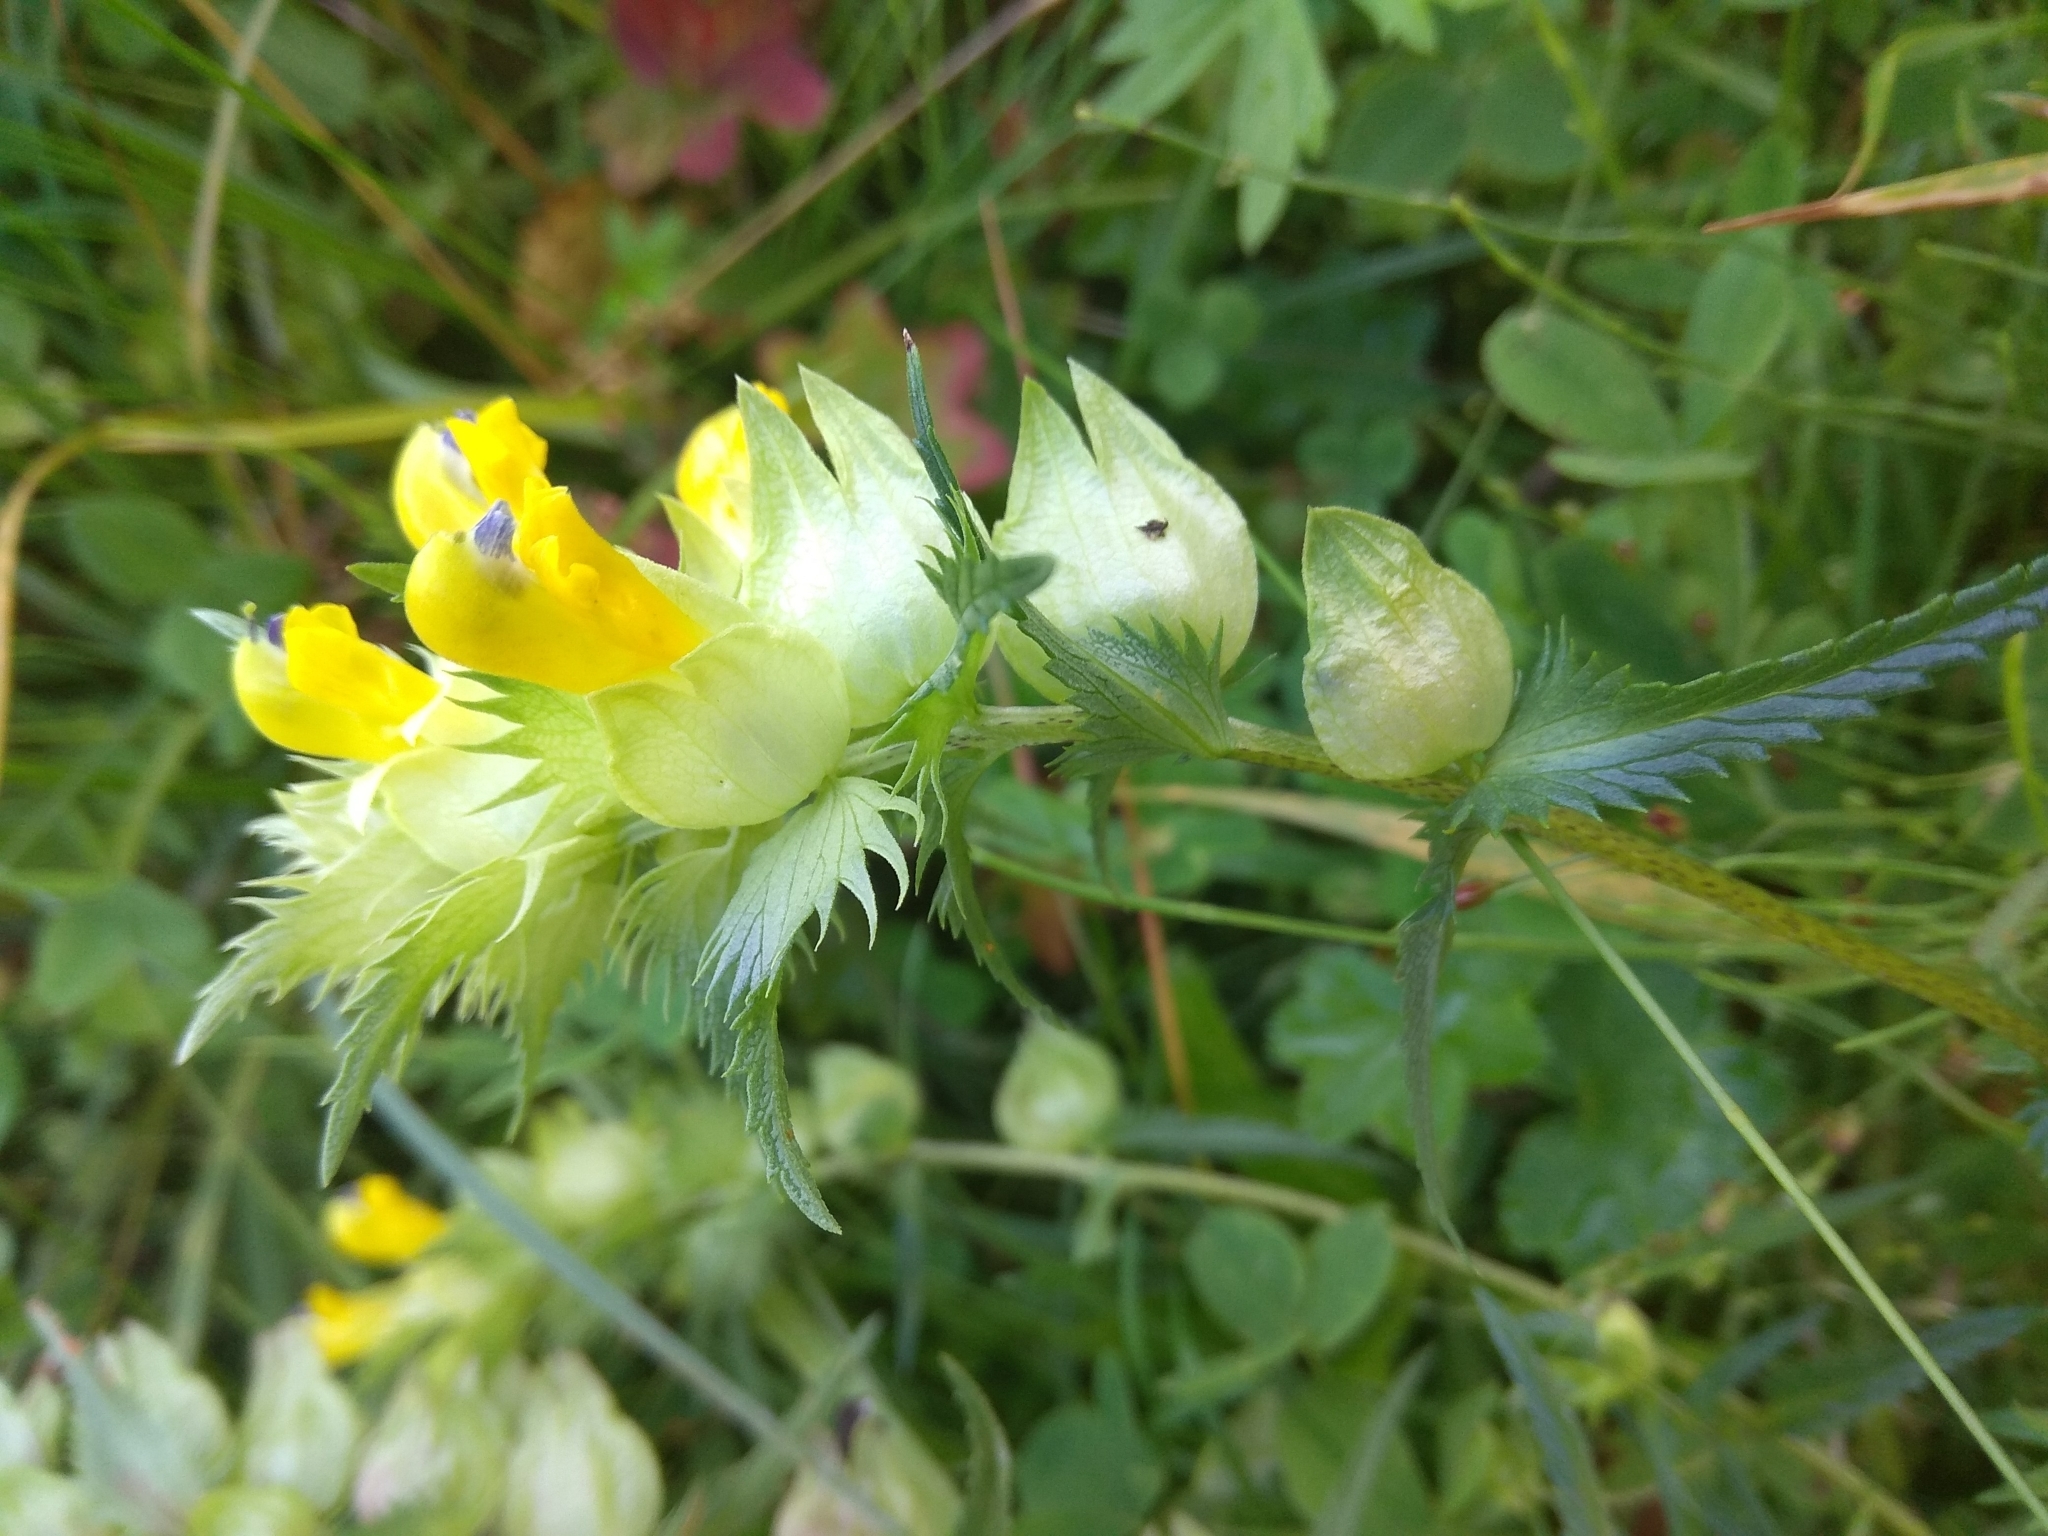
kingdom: Plantae
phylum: Tracheophyta
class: Magnoliopsida
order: Lamiales
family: Orobanchaceae
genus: Rhinanthus
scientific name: Rhinanthus serotinus
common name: Late-flowering yellow rattle
